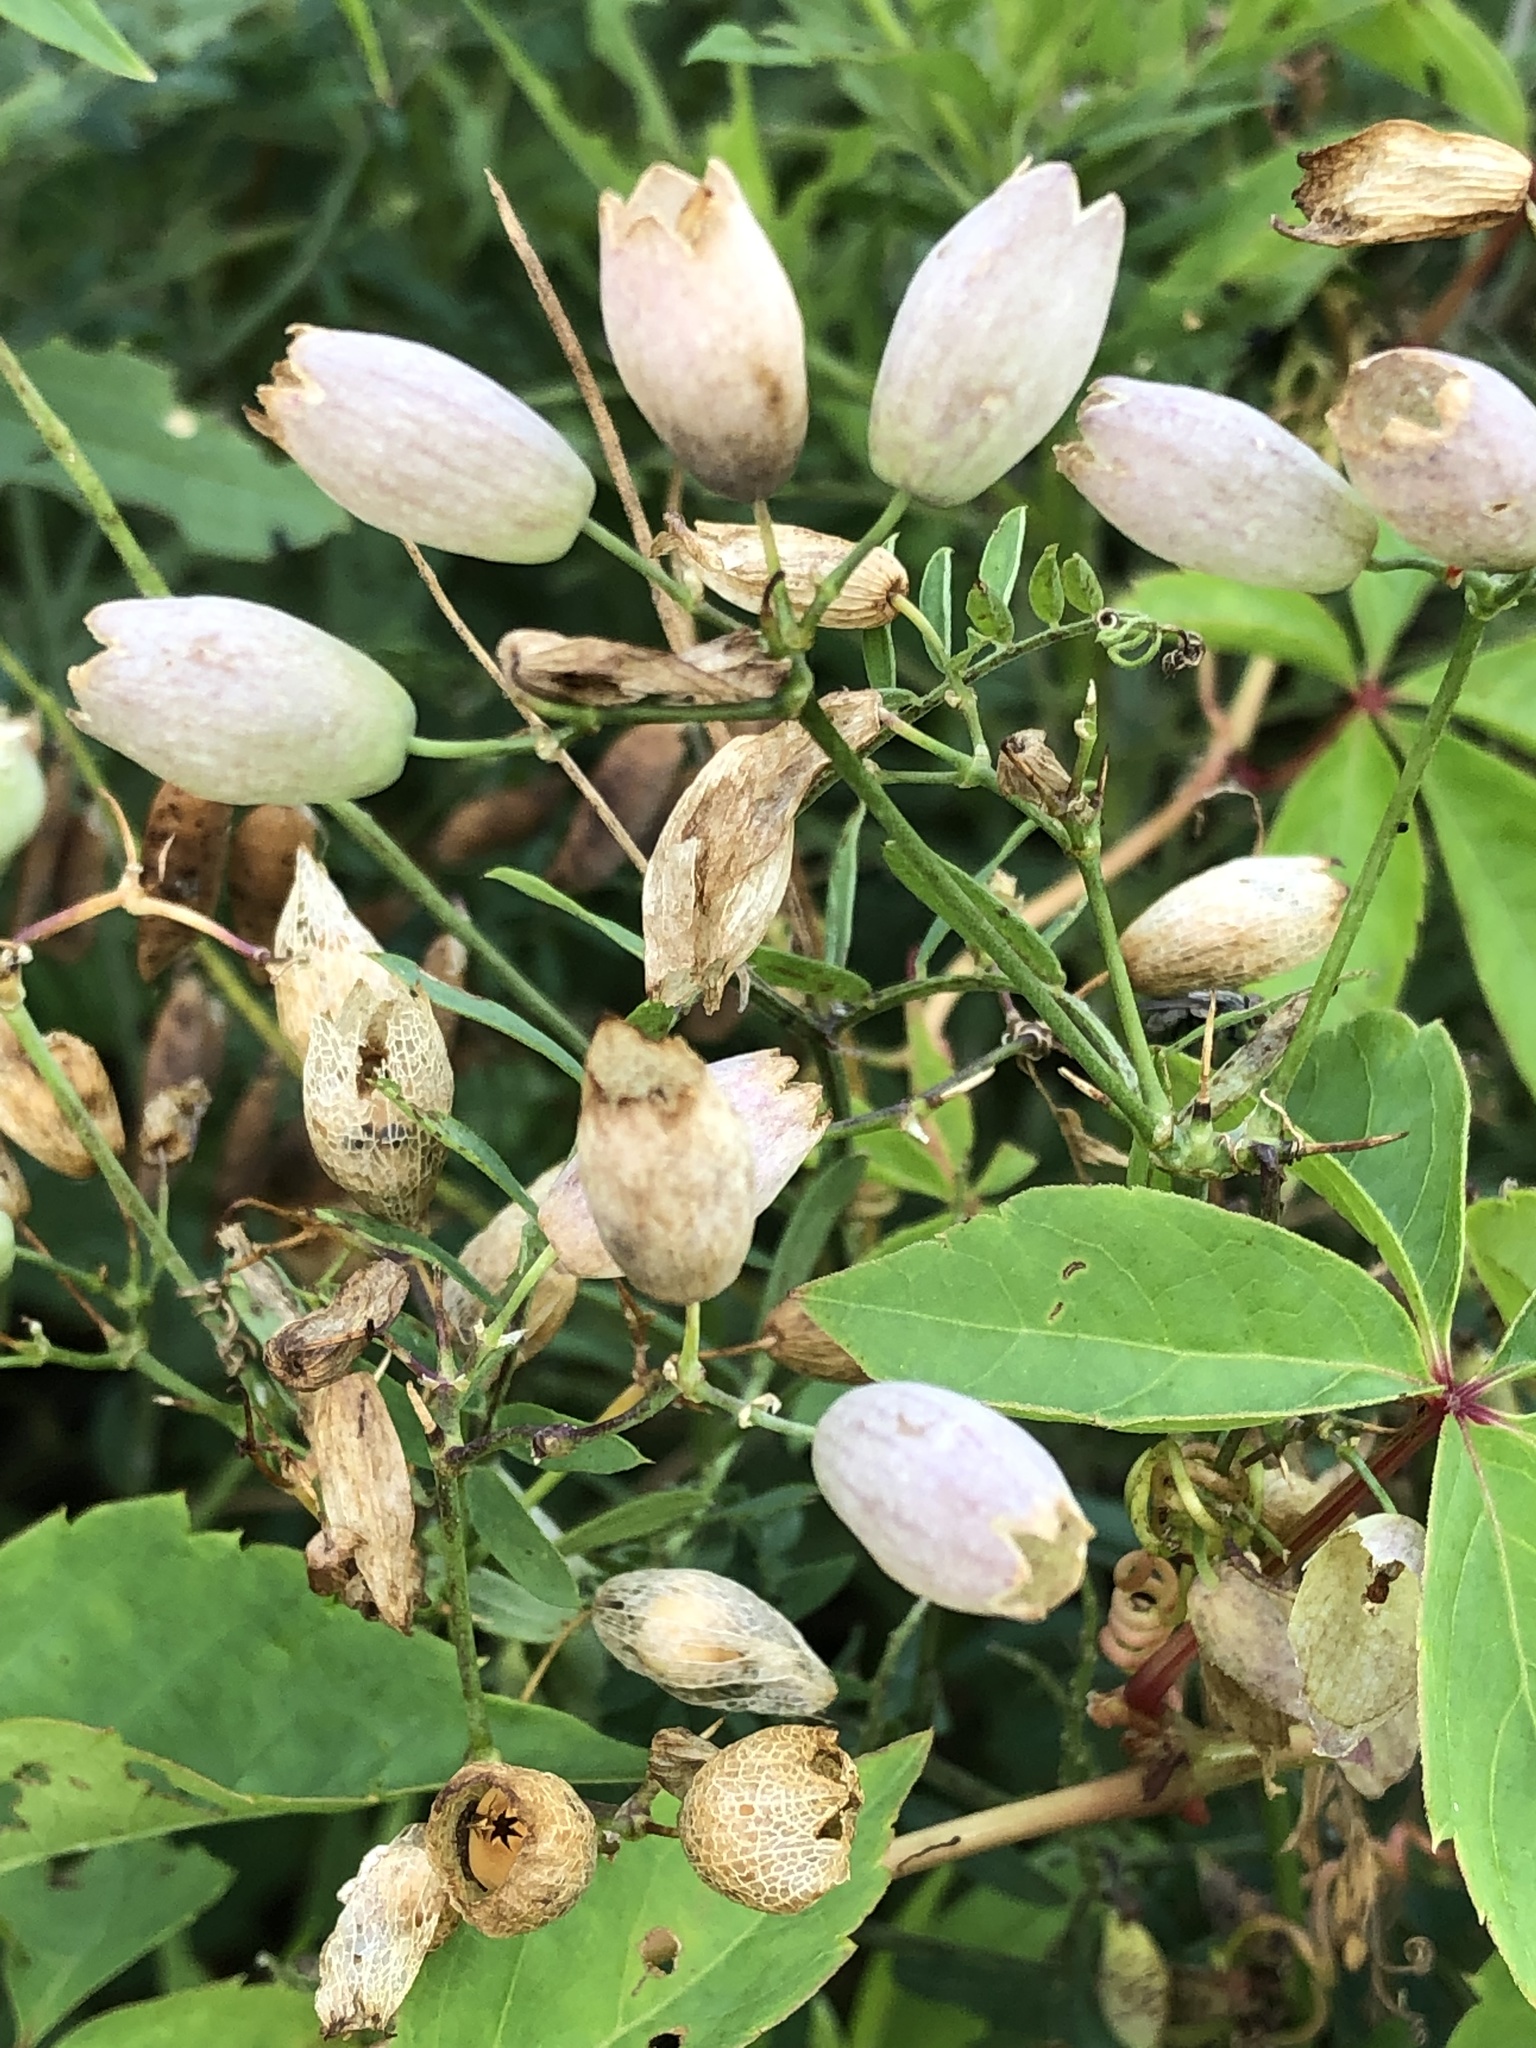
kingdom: Plantae
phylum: Tracheophyta
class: Magnoliopsida
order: Caryophyllales
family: Caryophyllaceae
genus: Silene
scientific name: Silene vulgaris
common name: Bladder campion
